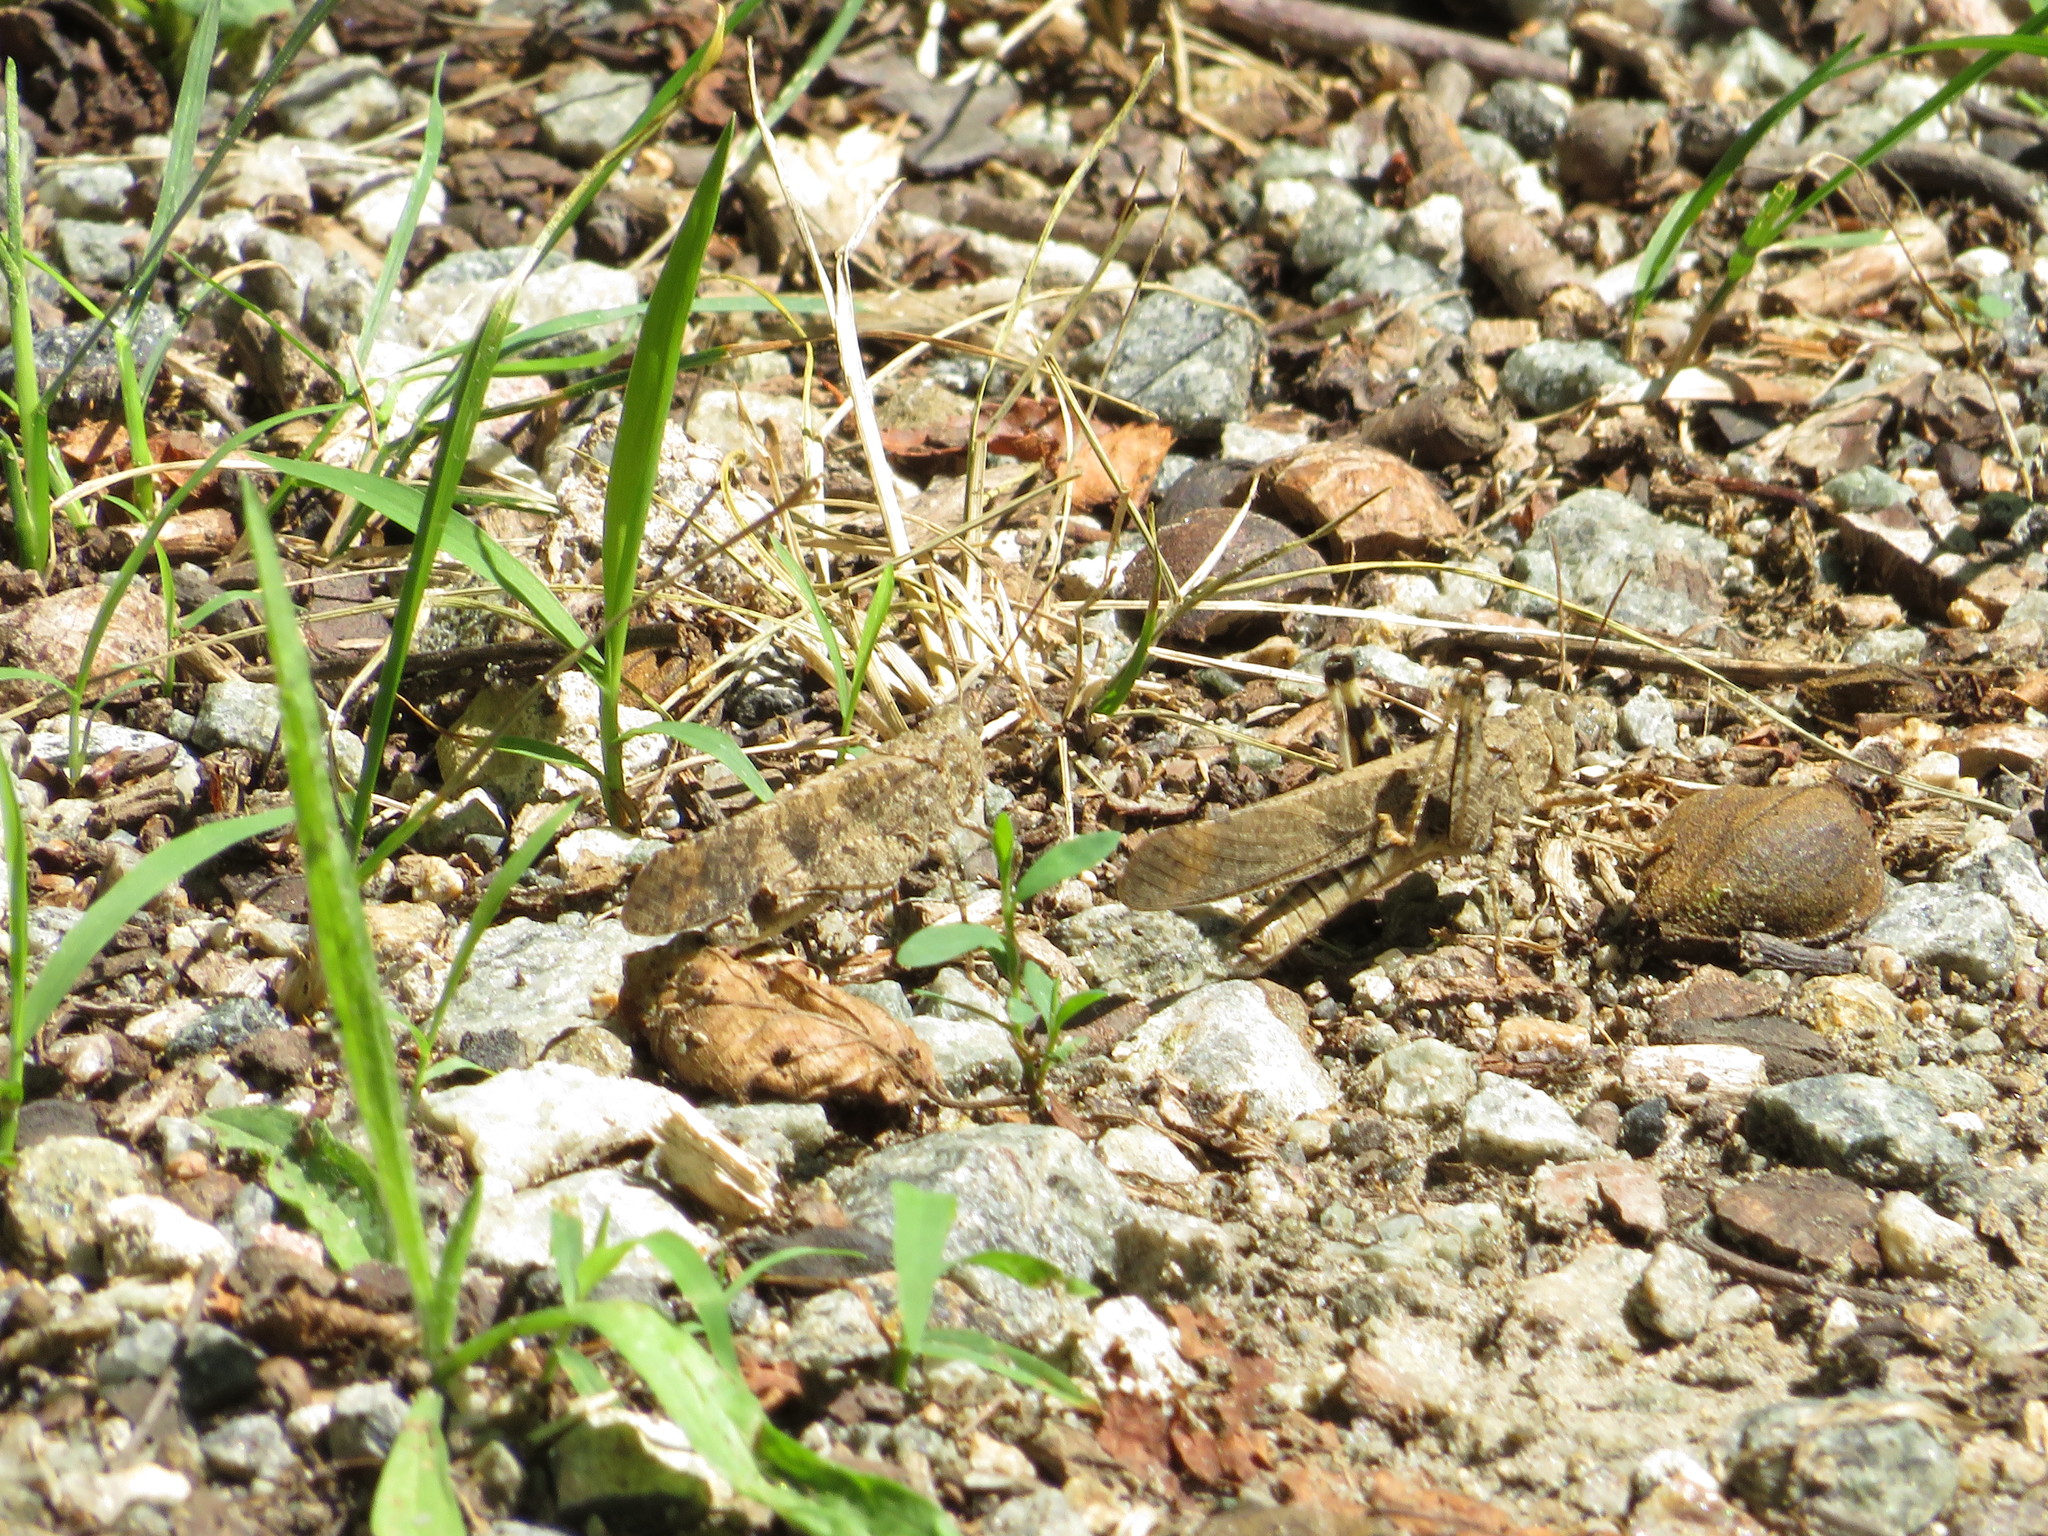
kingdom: Animalia
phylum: Arthropoda
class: Insecta
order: Orthoptera
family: Acrididae
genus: Dissosteira
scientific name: Dissosteira carolina
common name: Carolina grasshopper
